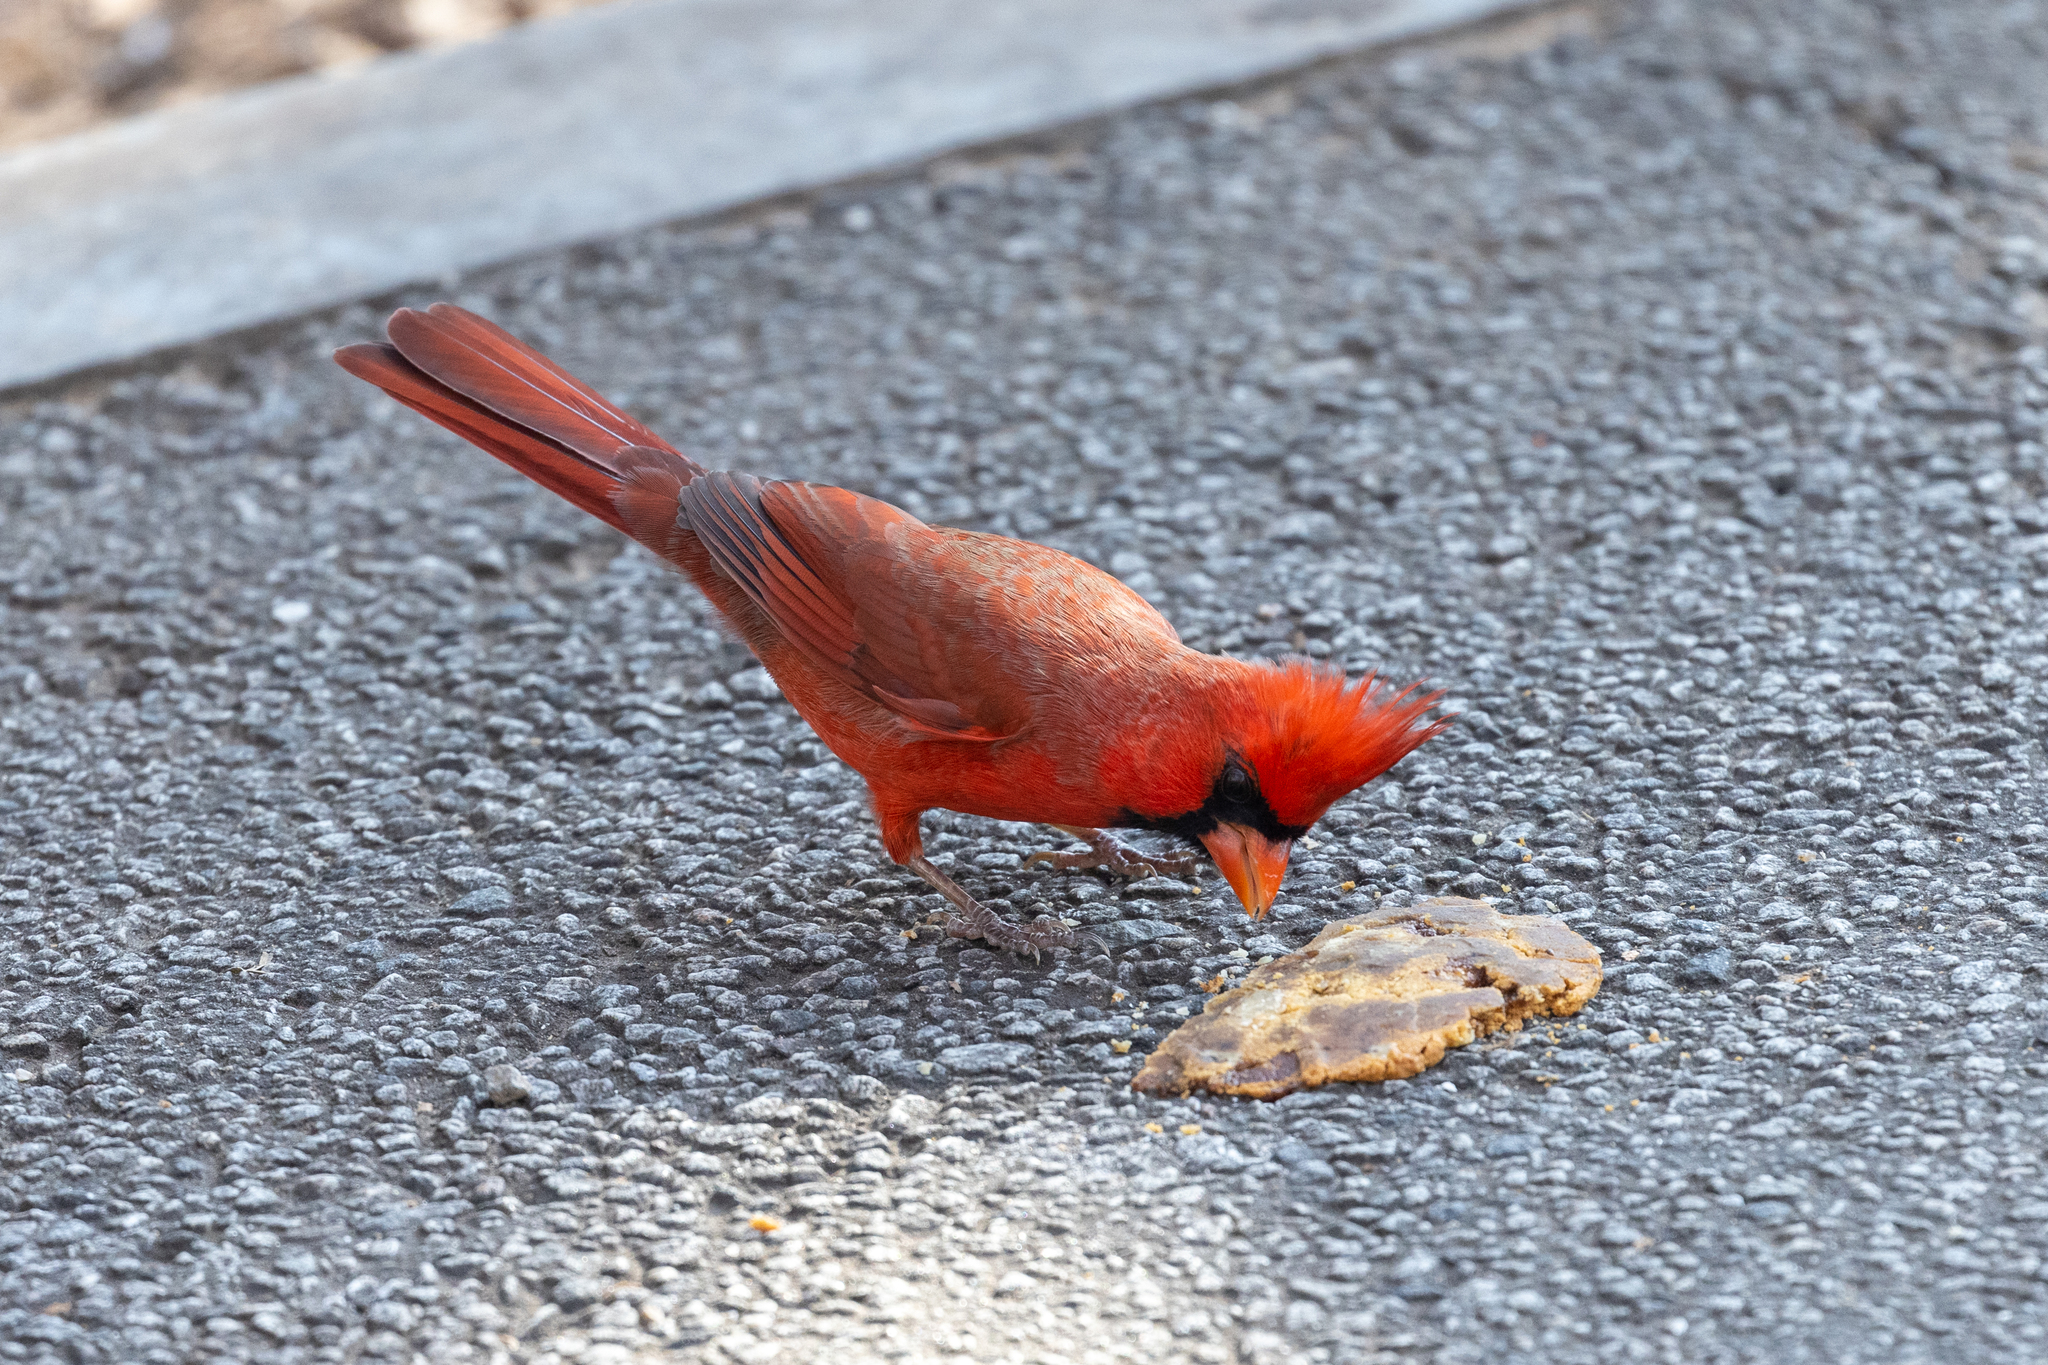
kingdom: Animalia
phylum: Chordata
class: Aves
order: Passeriformes
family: Cardinalidae
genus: Cardinalis
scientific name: Cardinalis cardinalis
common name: Northern cardinal
